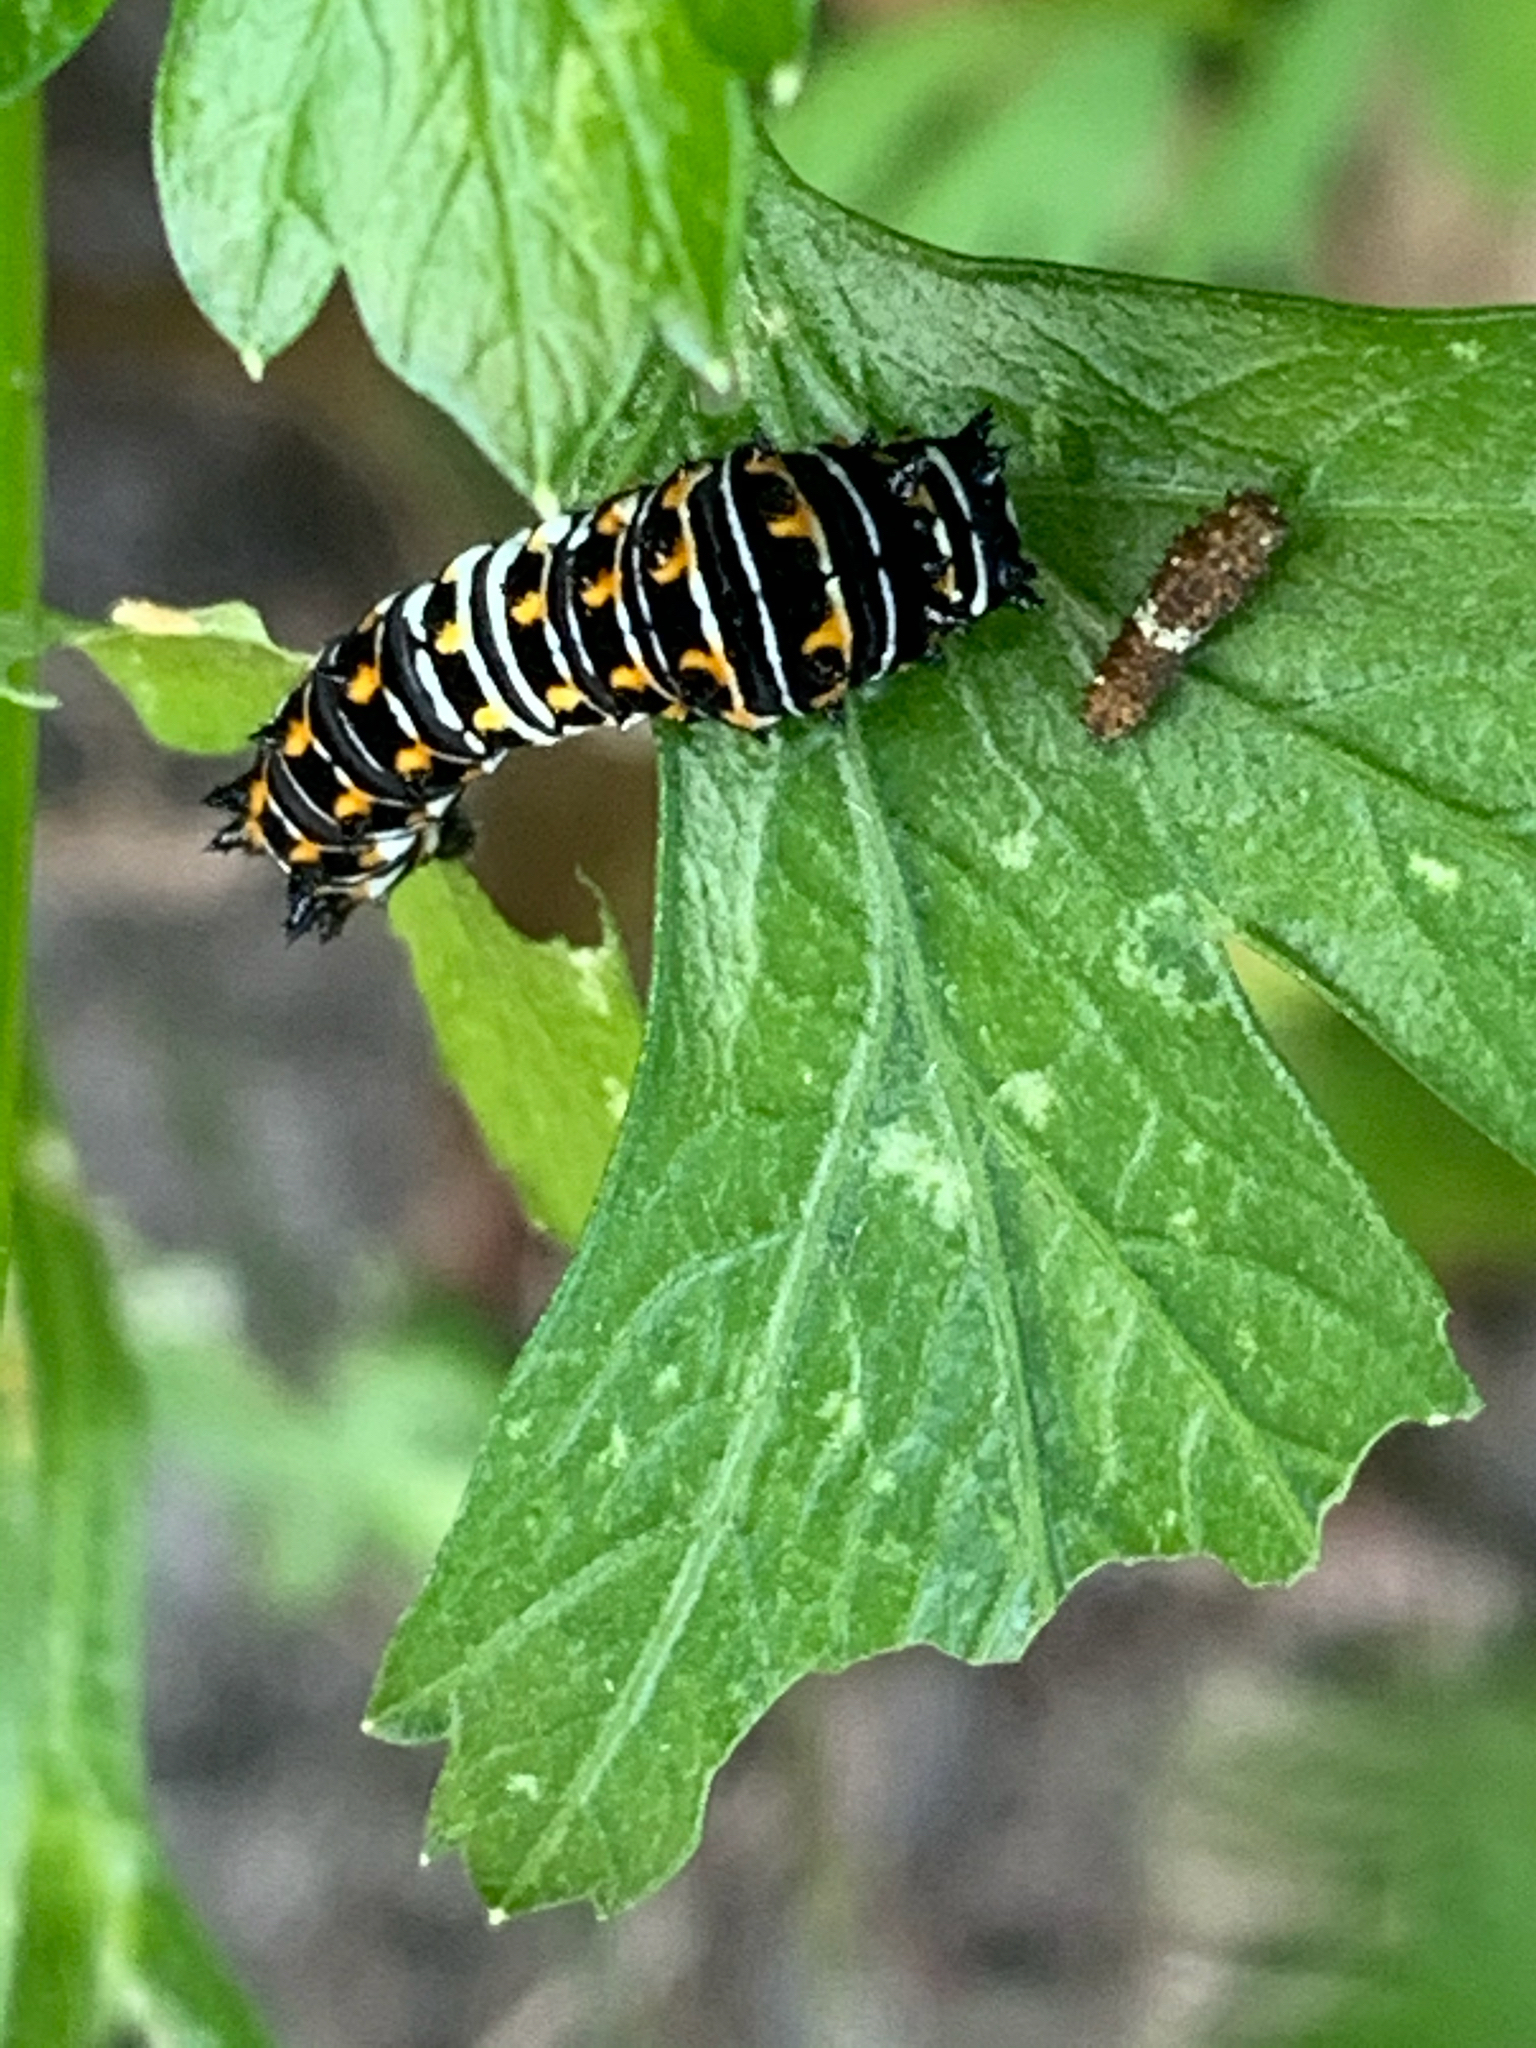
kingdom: Animalia
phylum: Arthropoda
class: Insecta
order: Lepidoptera
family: Papilionidae
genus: Papilio
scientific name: Papilio polyxenes
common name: Black swallowtail
